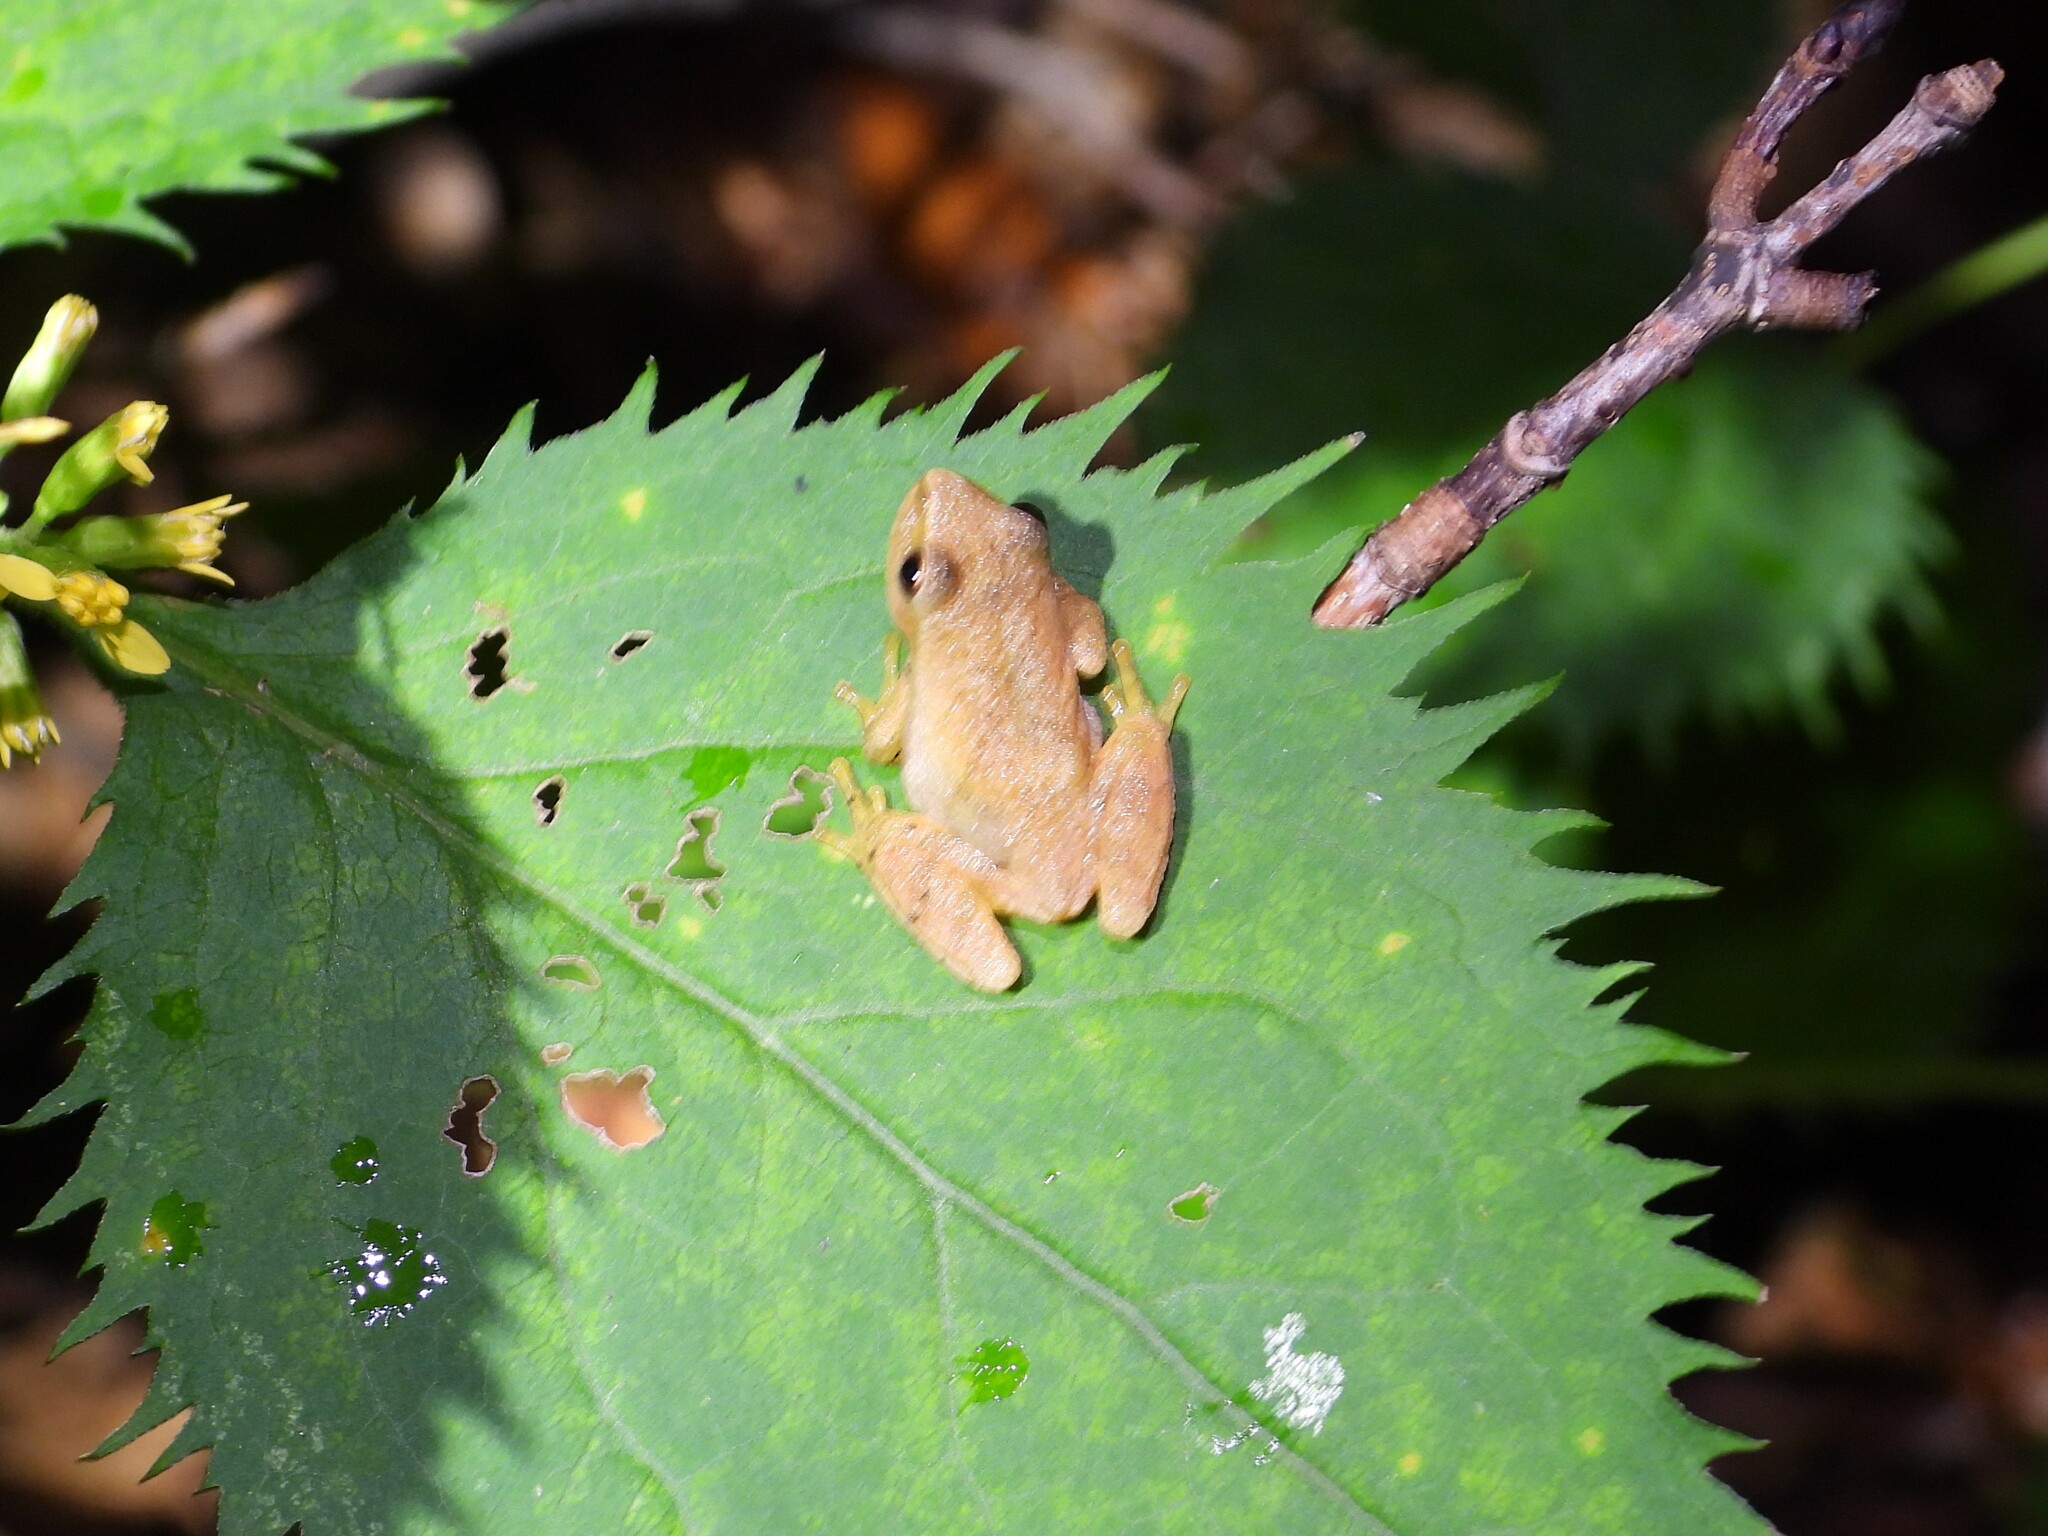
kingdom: Animalia
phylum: Chordata
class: Amphibia
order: Anura
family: Hylidae
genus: Pseudacris
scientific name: Pseudacris crucifer
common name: Spring peeper
